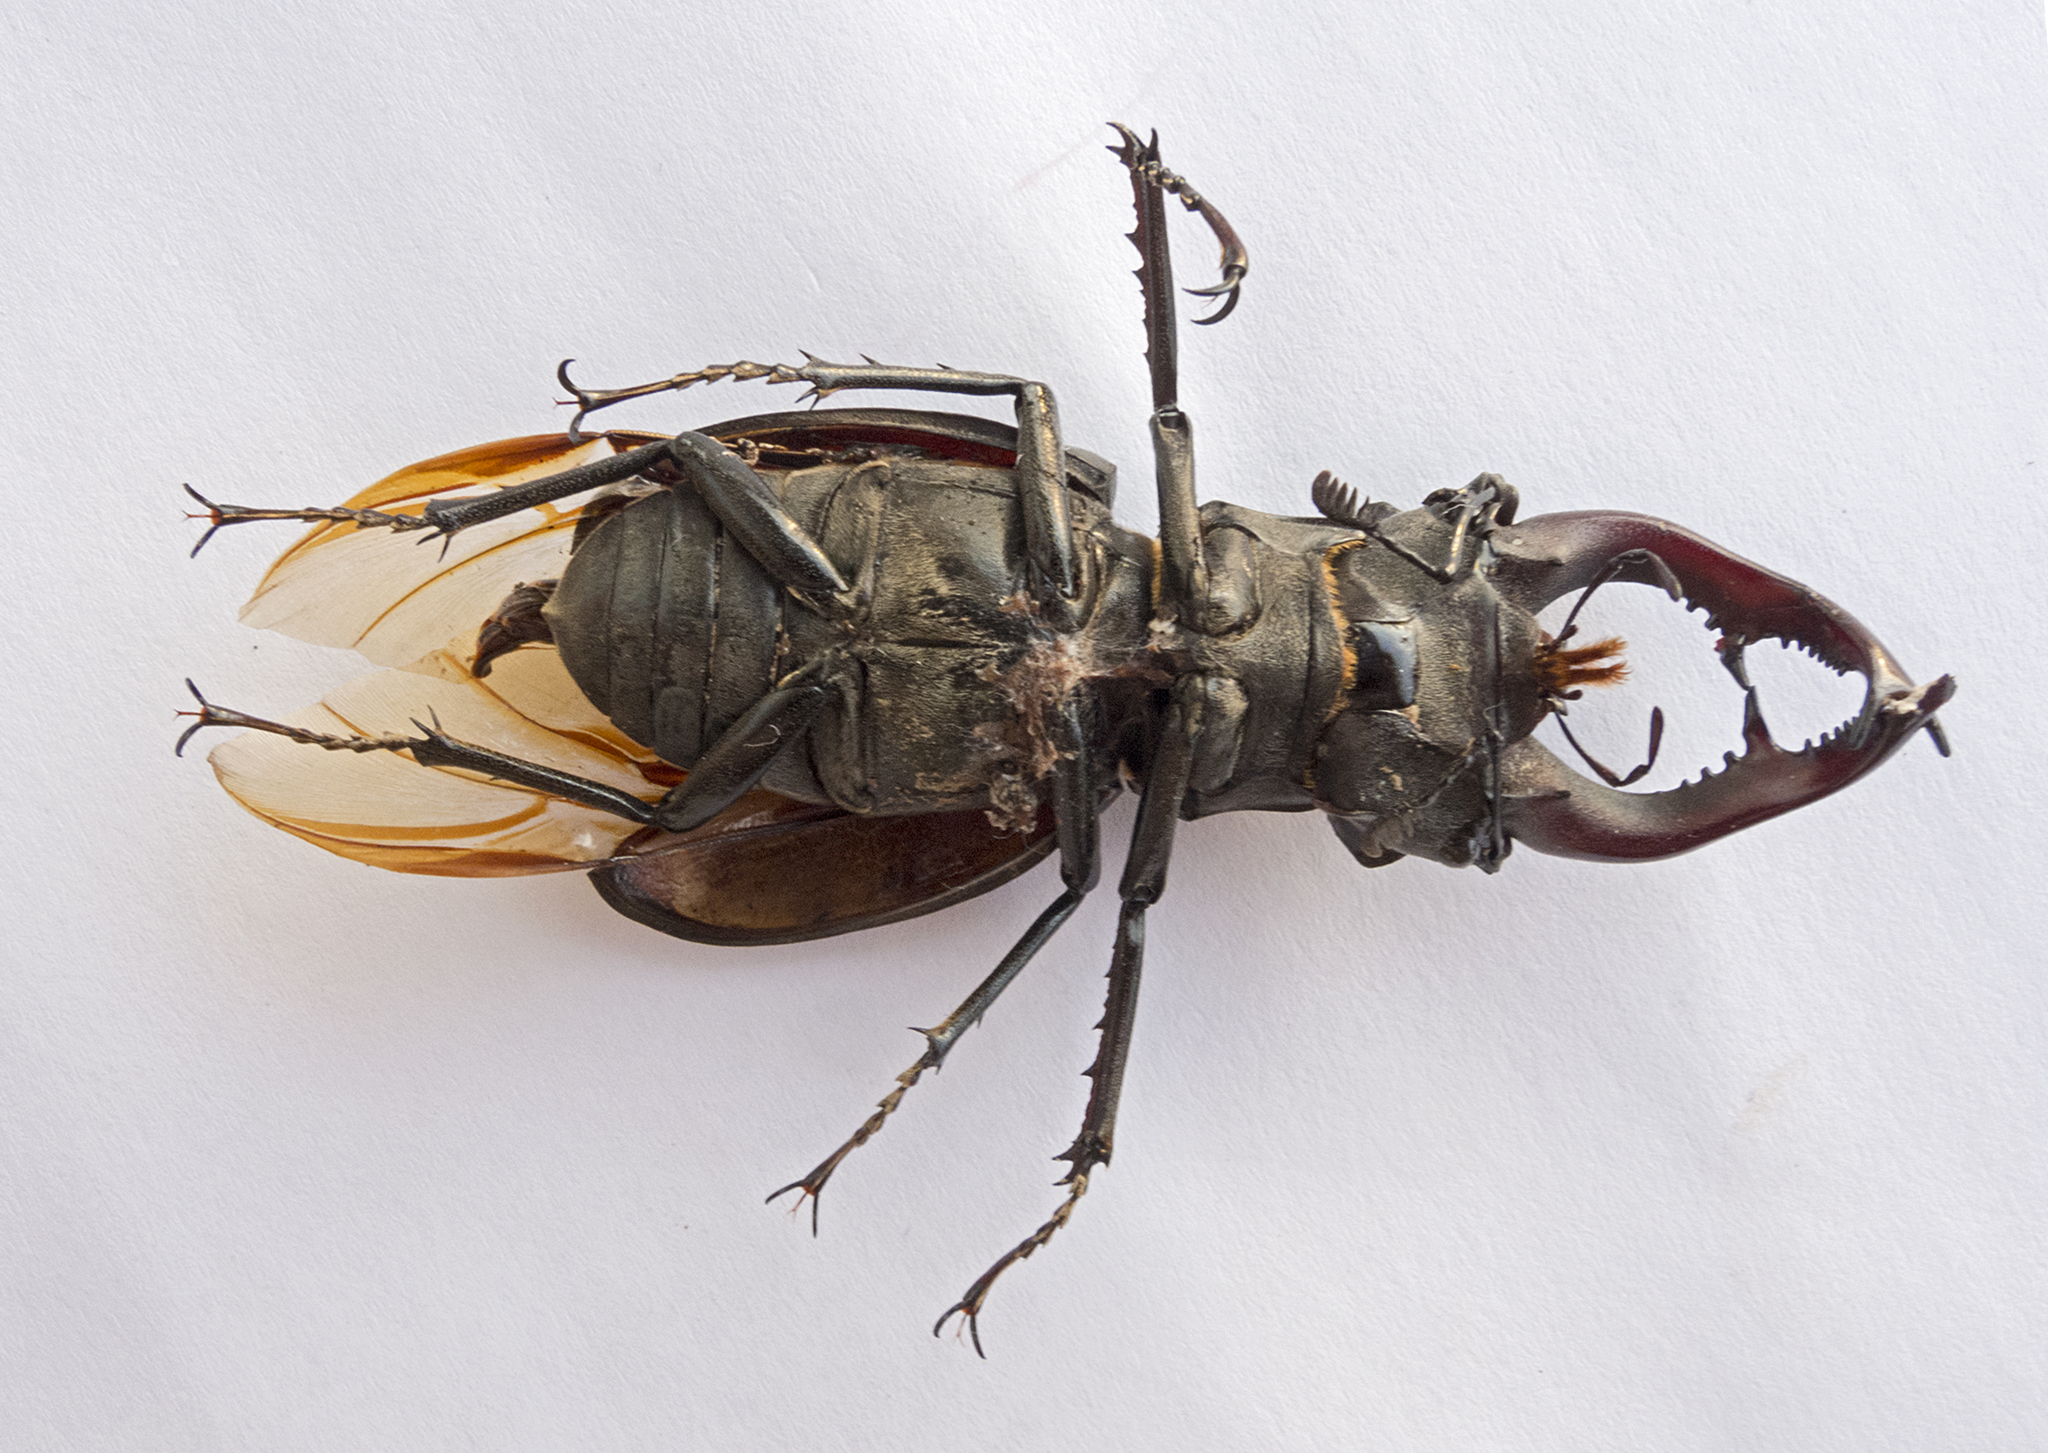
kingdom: Animalia
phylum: Arthropoda
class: Insecta
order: Coleoptera
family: Lucanidae
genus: Lucanus
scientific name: Lucanus cervus
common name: Stag beetle
